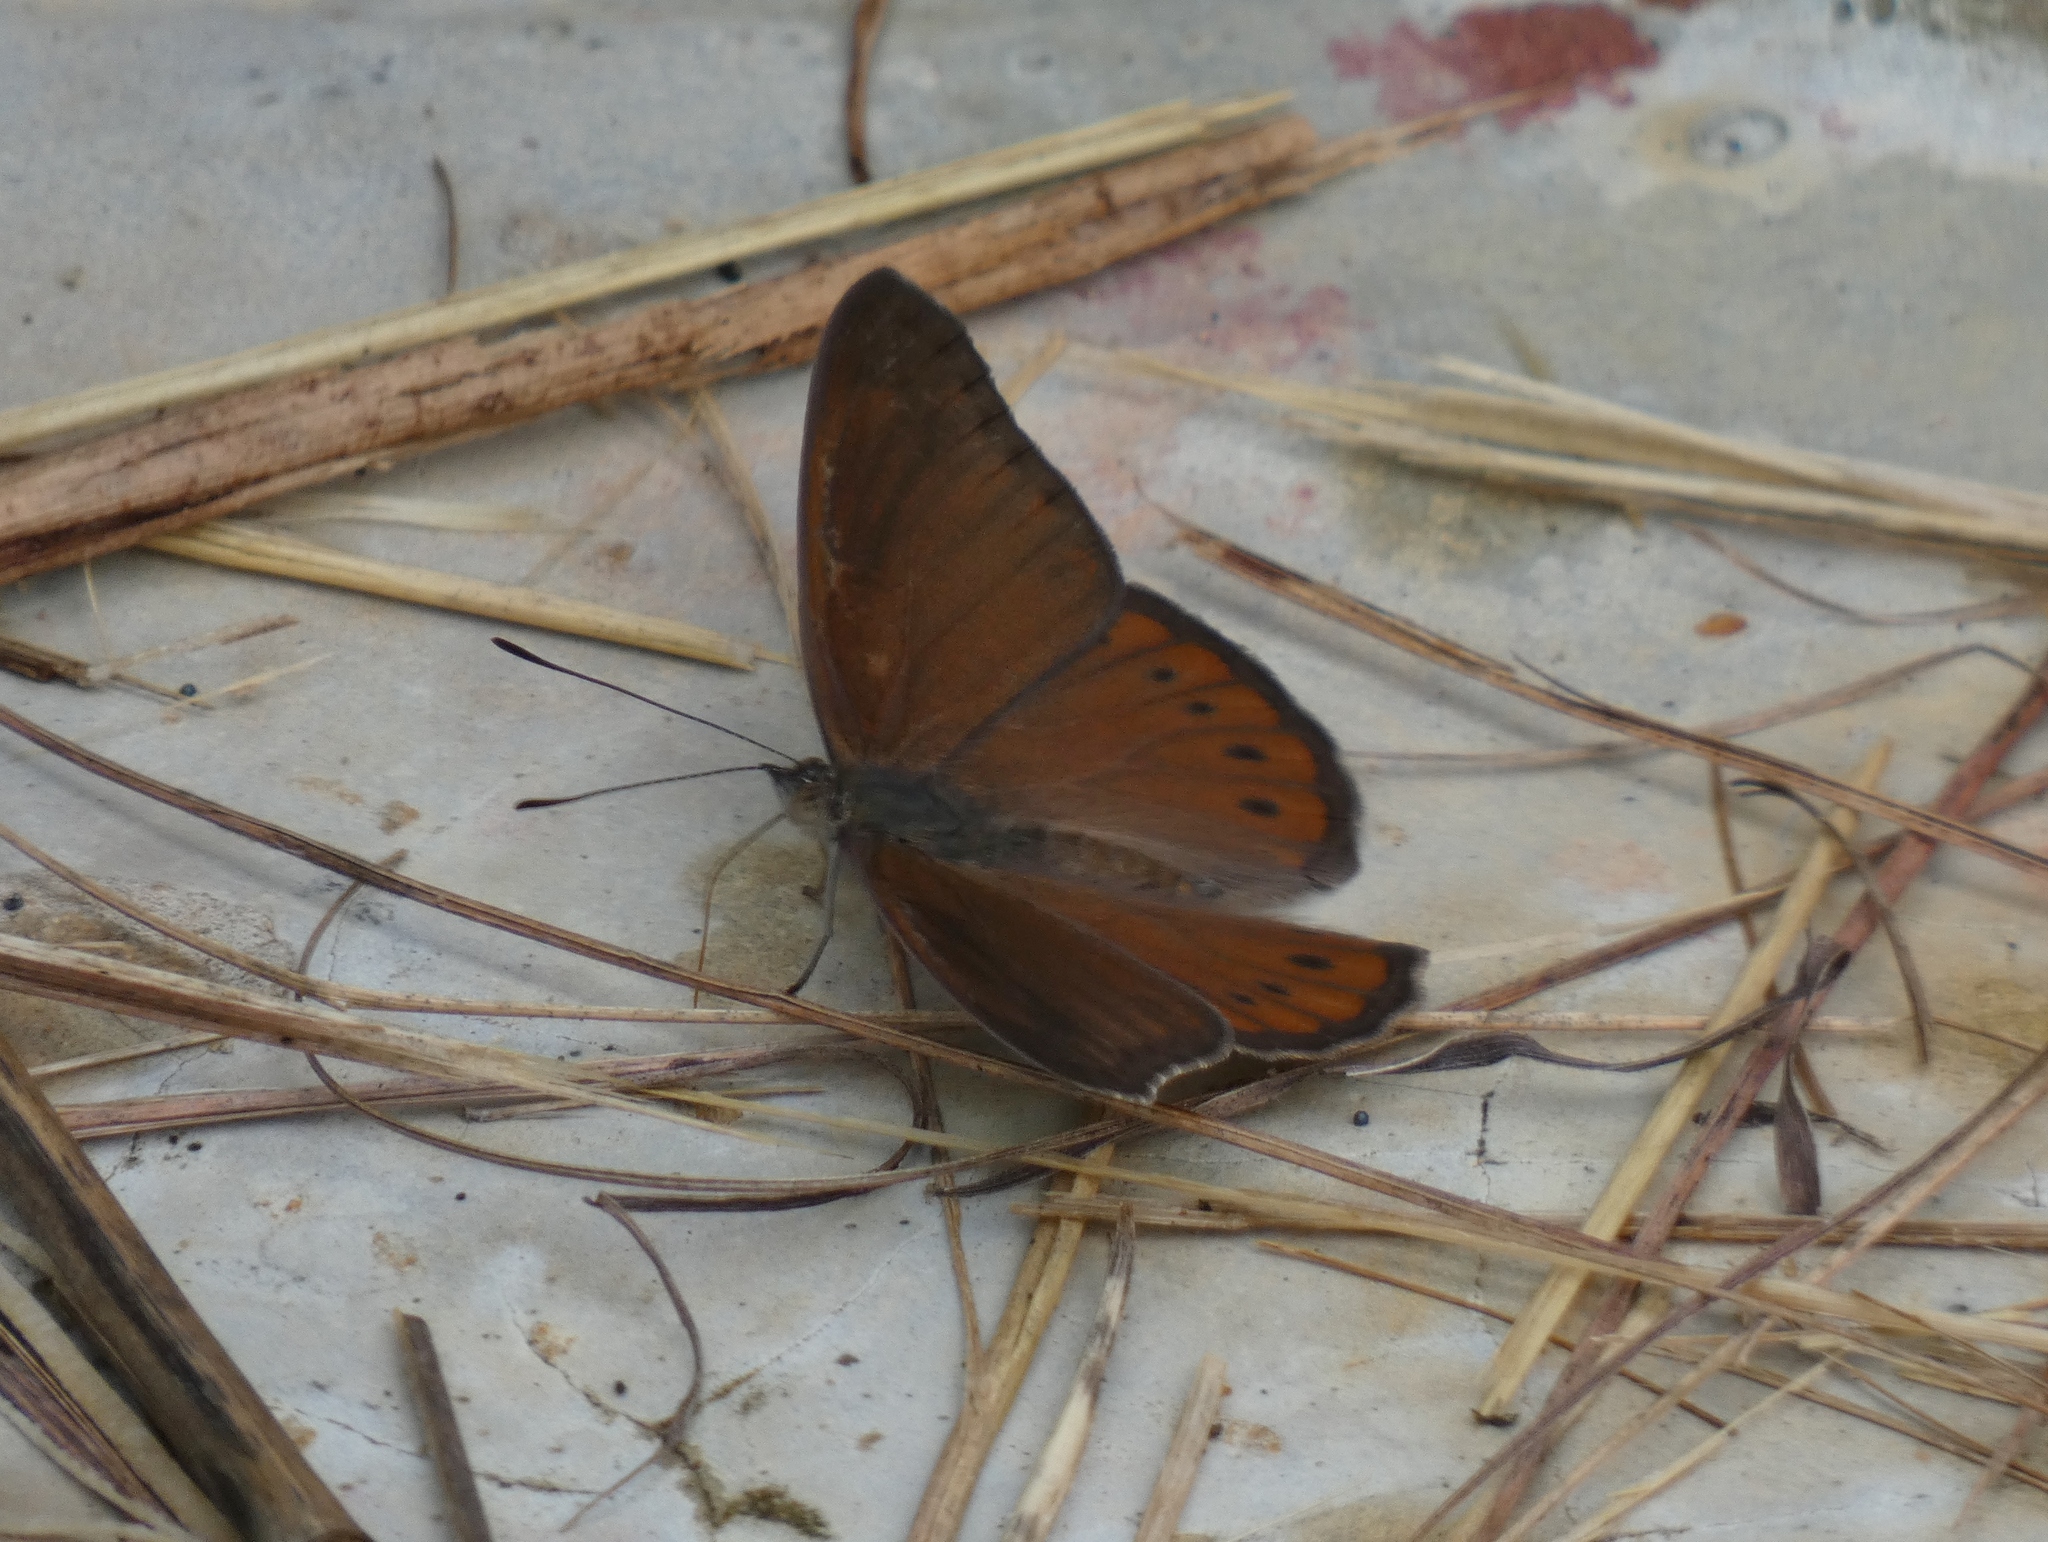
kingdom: Animalia
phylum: Arthropoda
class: Insecta
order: Lepidoptera
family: Nymphalidae
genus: Asterope
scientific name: Asterope boisduvali
